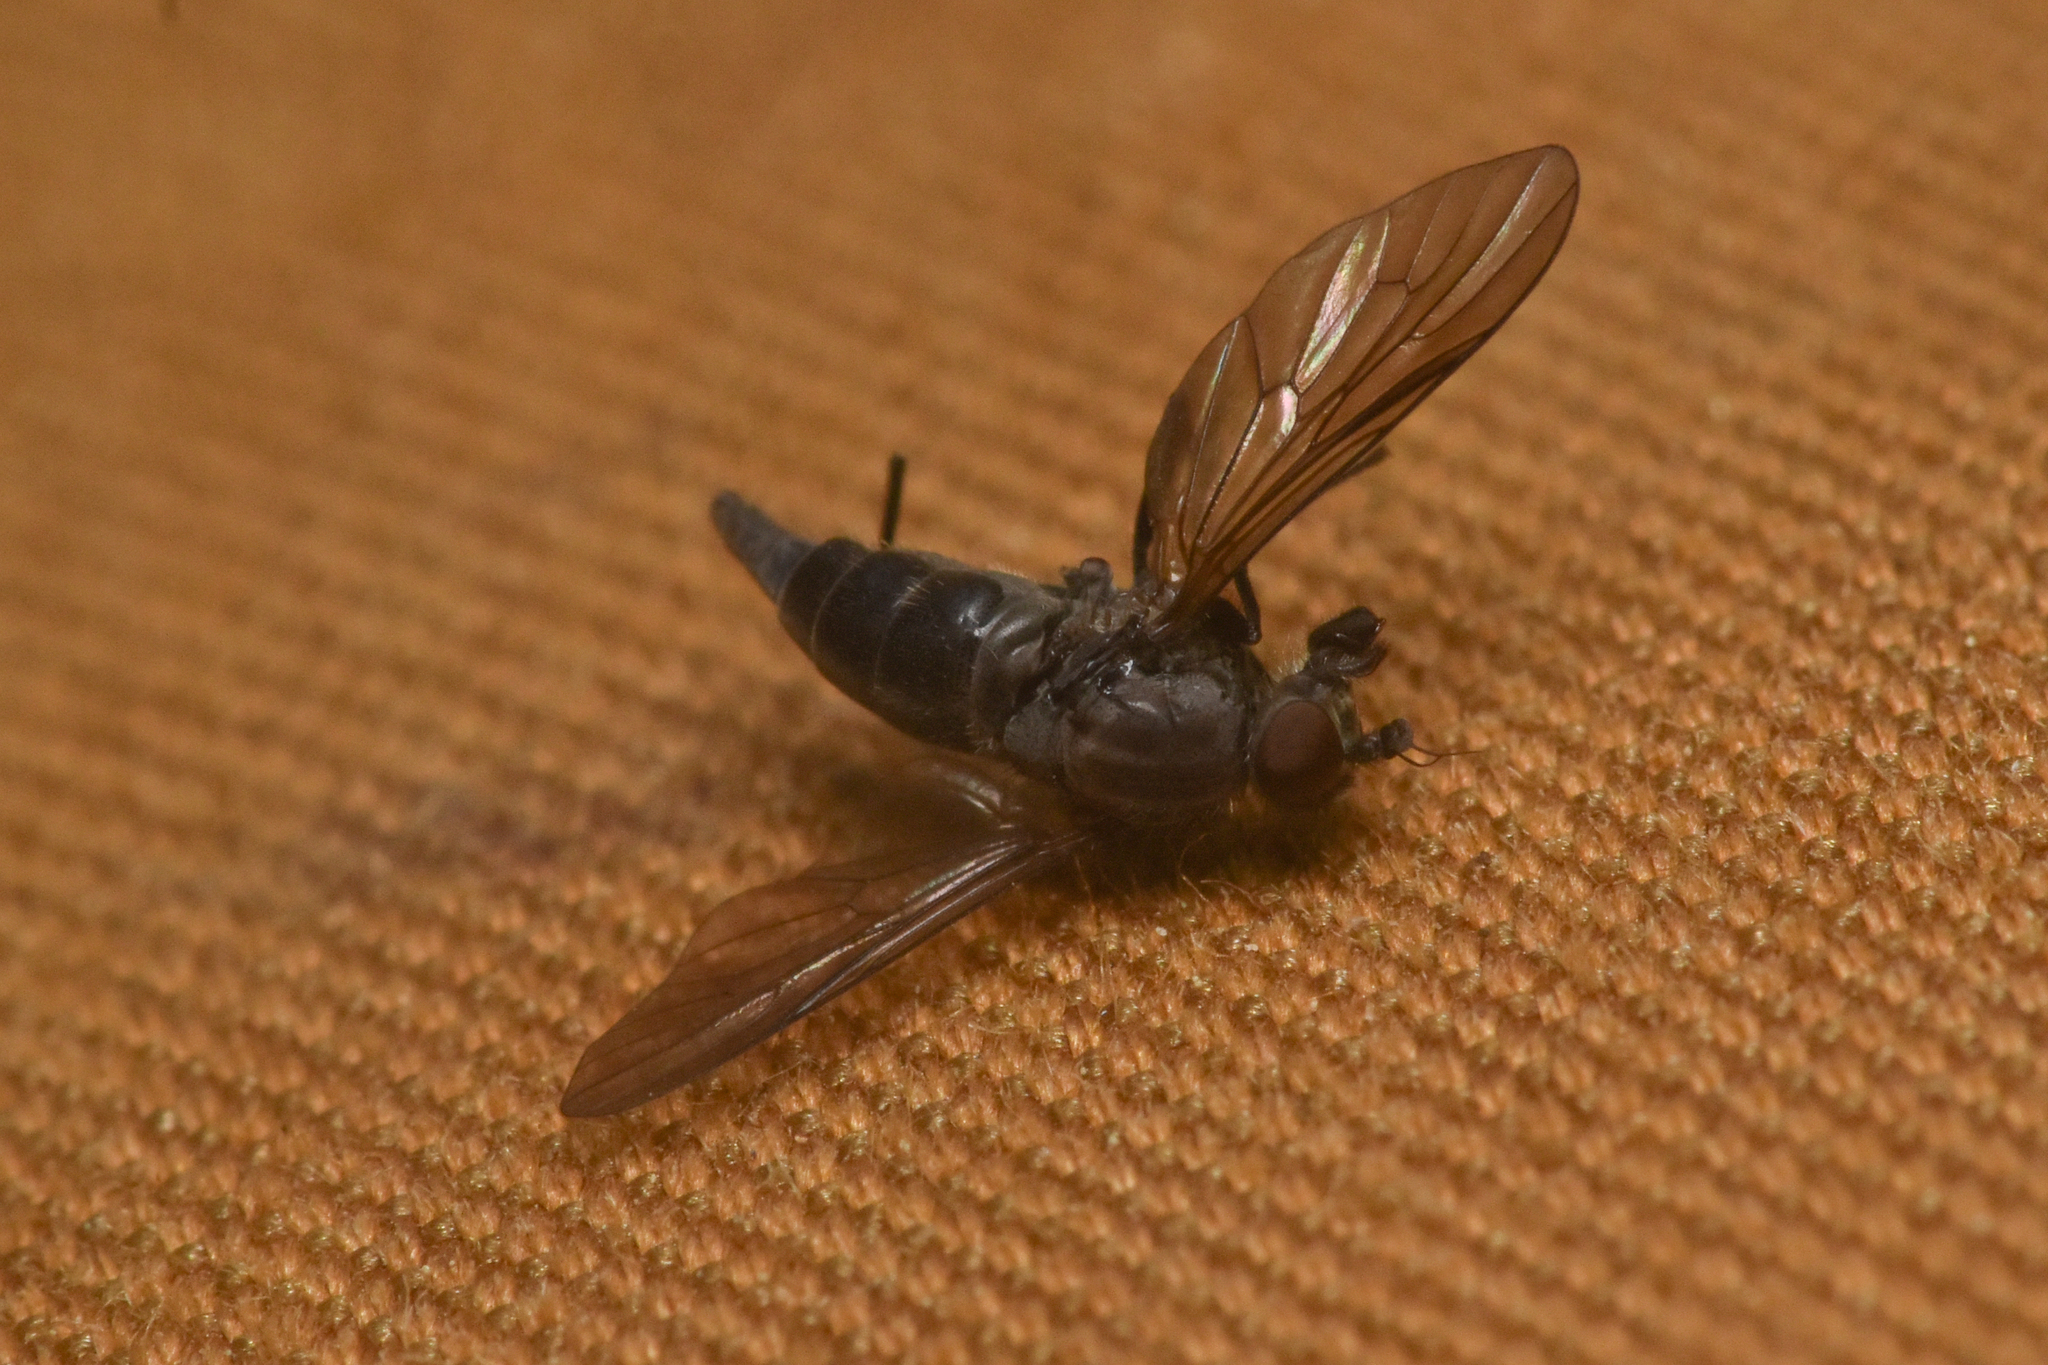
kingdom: Animalia
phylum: Arthropoda
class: Insecta
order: Diptera
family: Rhagionidae
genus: Symphoromyia
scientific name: Symphoromyia
